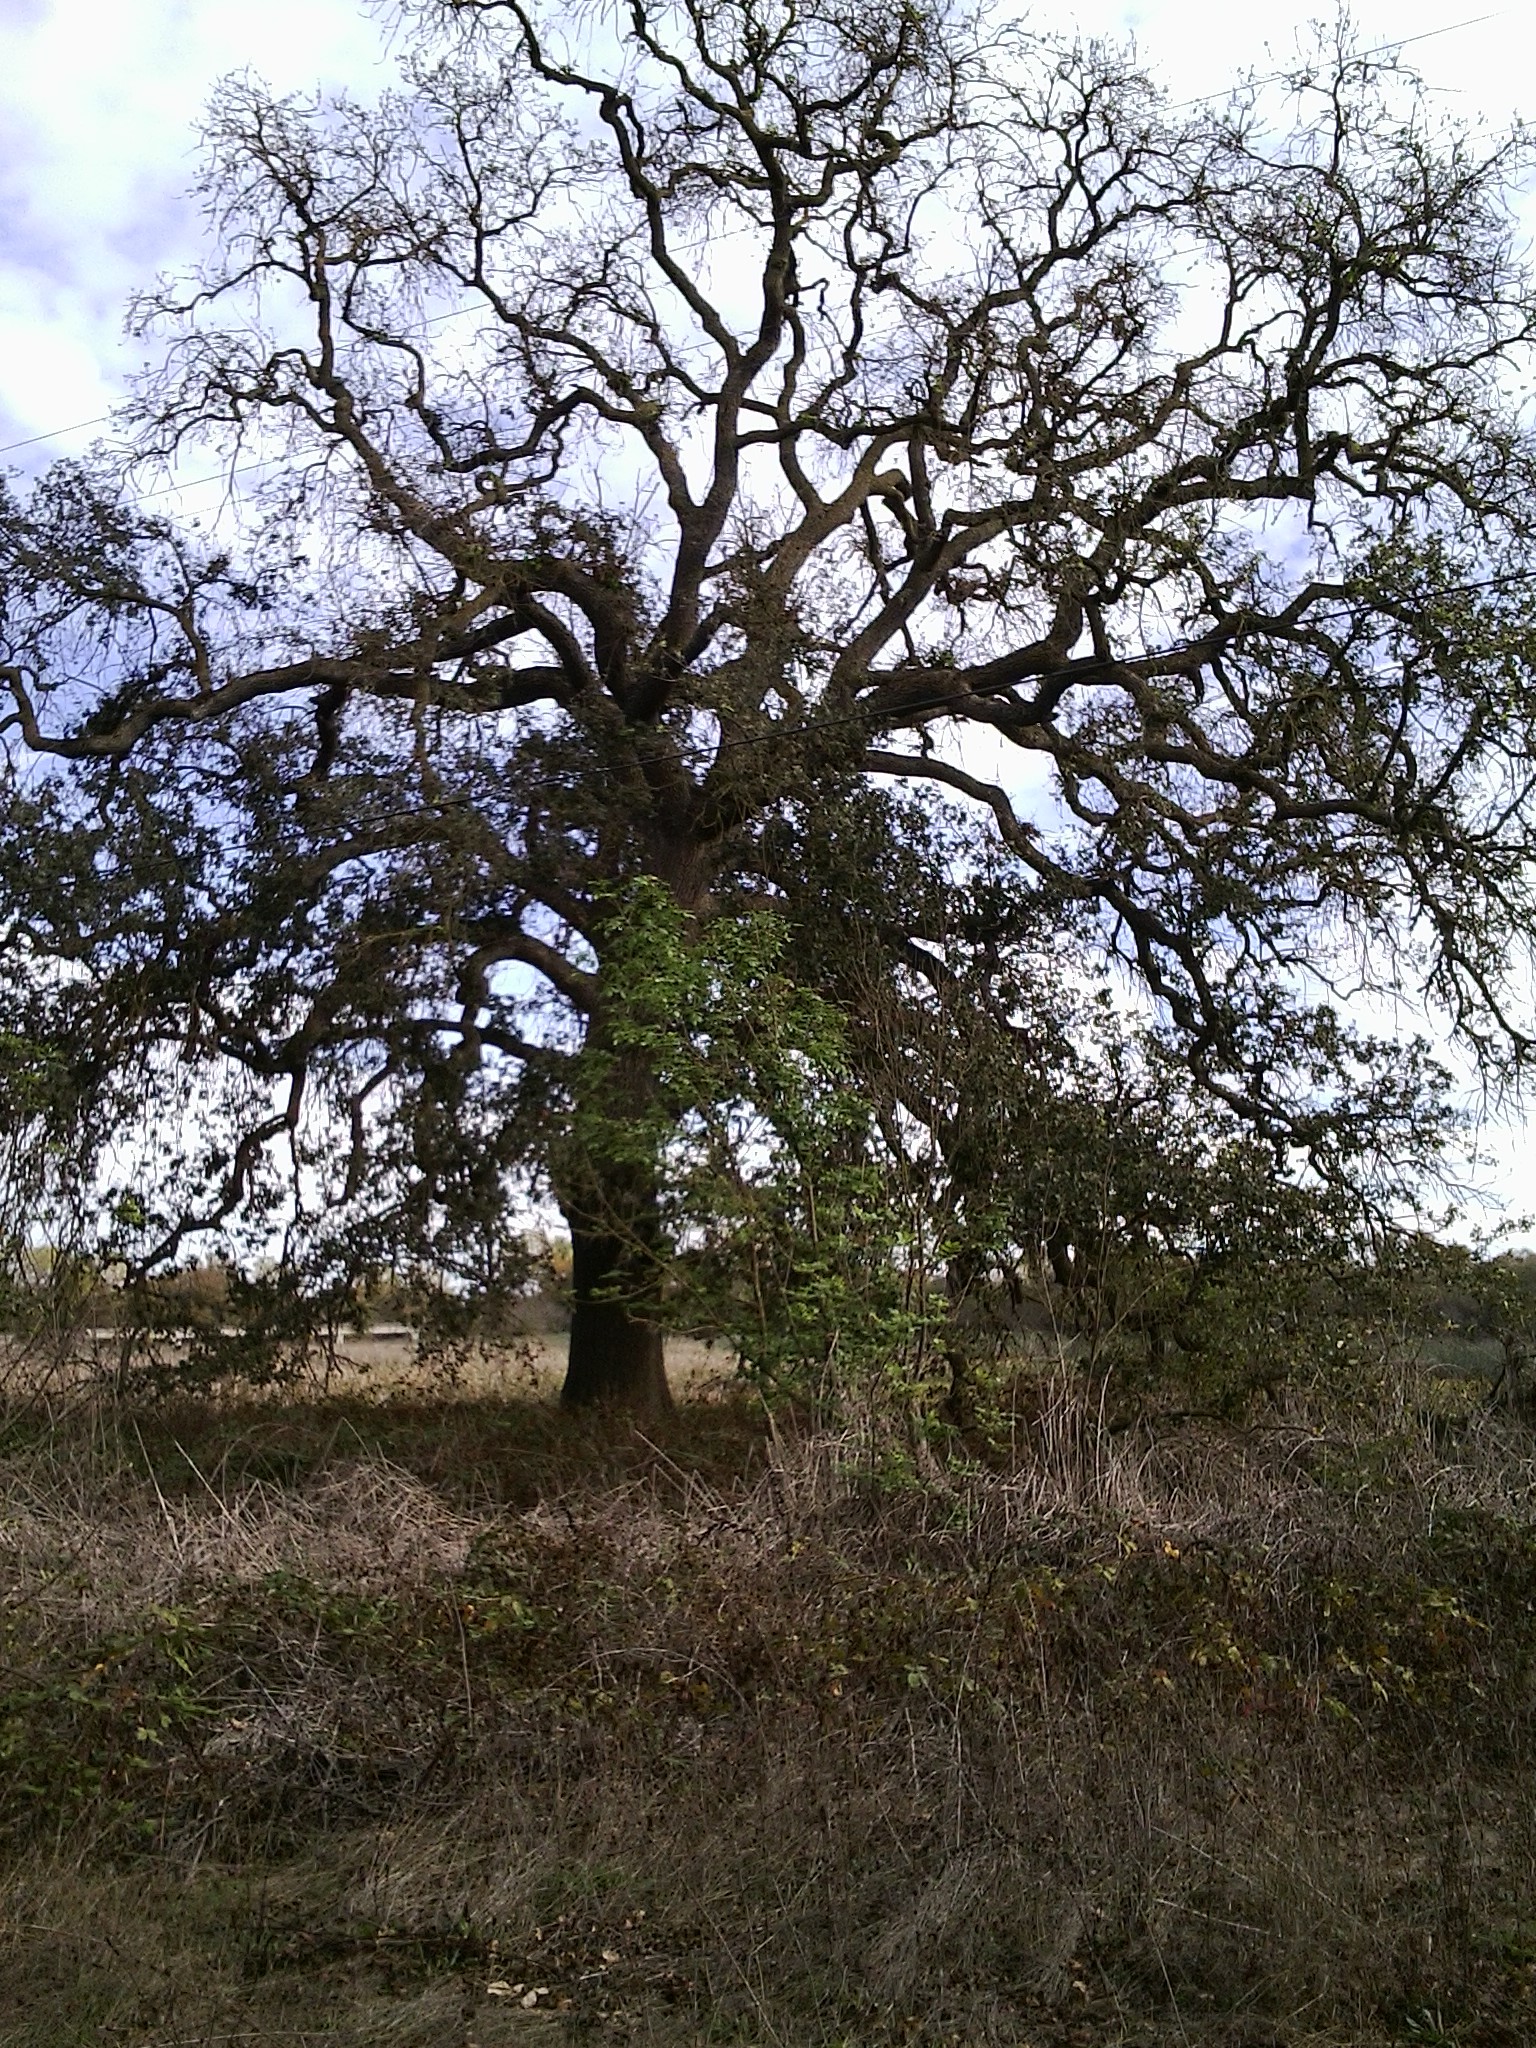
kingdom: Plantae
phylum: Tracheophyta
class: Magnoliopsida
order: Fagales
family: Fagaceae
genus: Quercus
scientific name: Quercus lobata
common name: Valley oak
